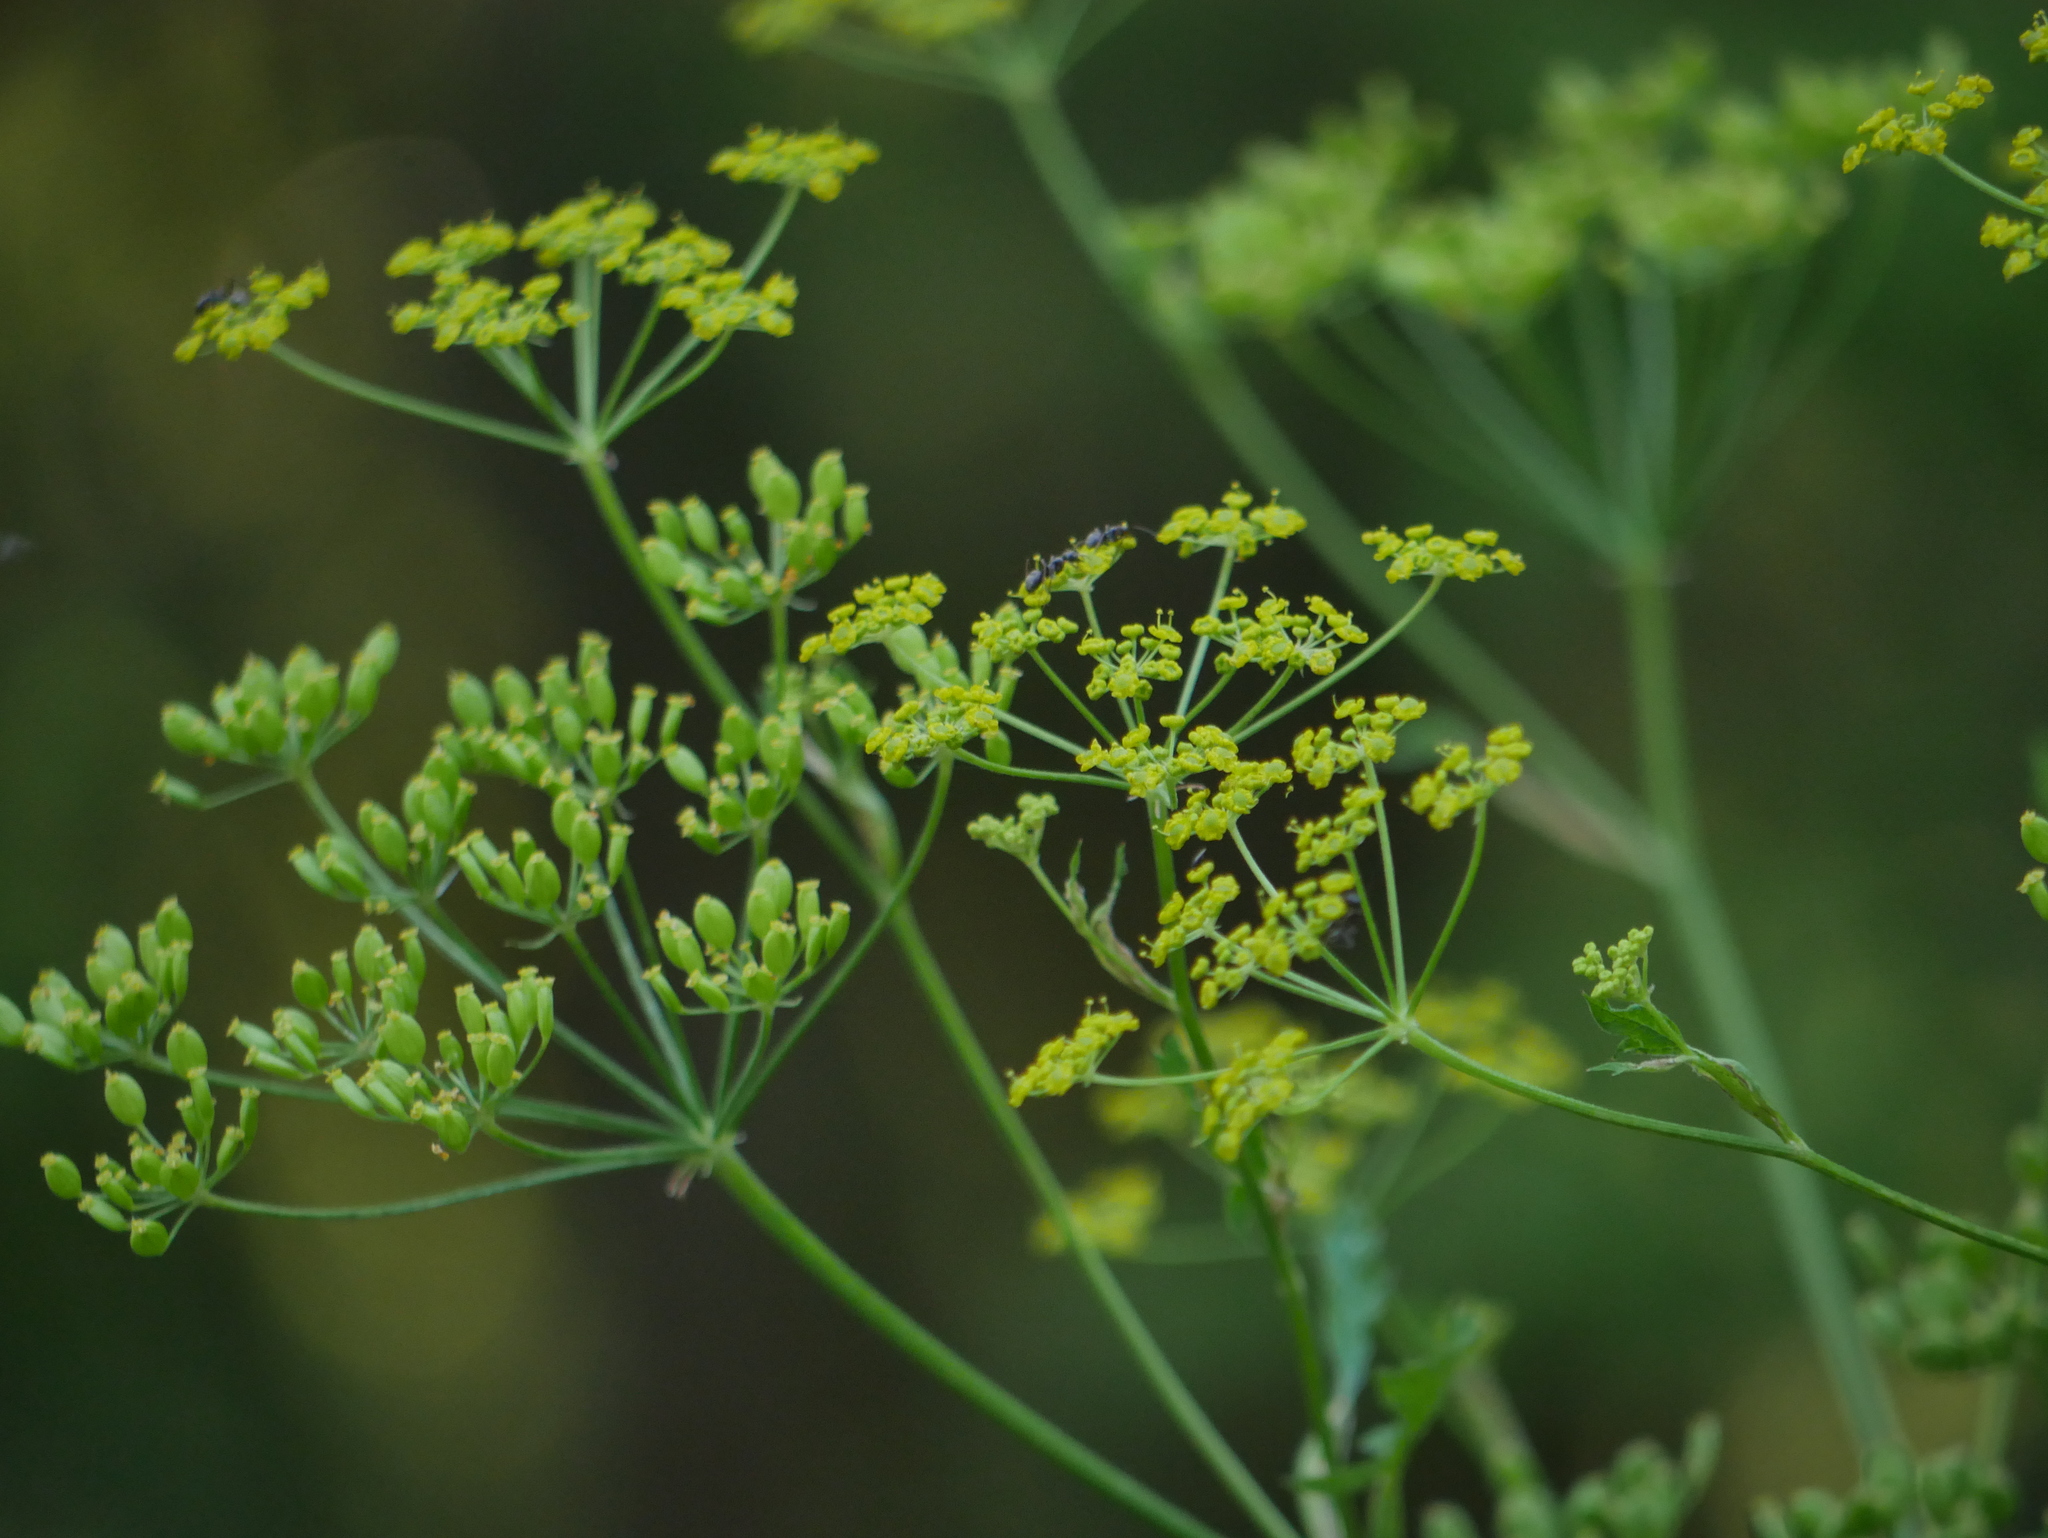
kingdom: Plantae
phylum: Tracheophyta
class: Magnoliopsida
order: Apiales
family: Apiaceae
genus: Pastinaca
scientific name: Pastinaca sativa
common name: Wild parsnip
